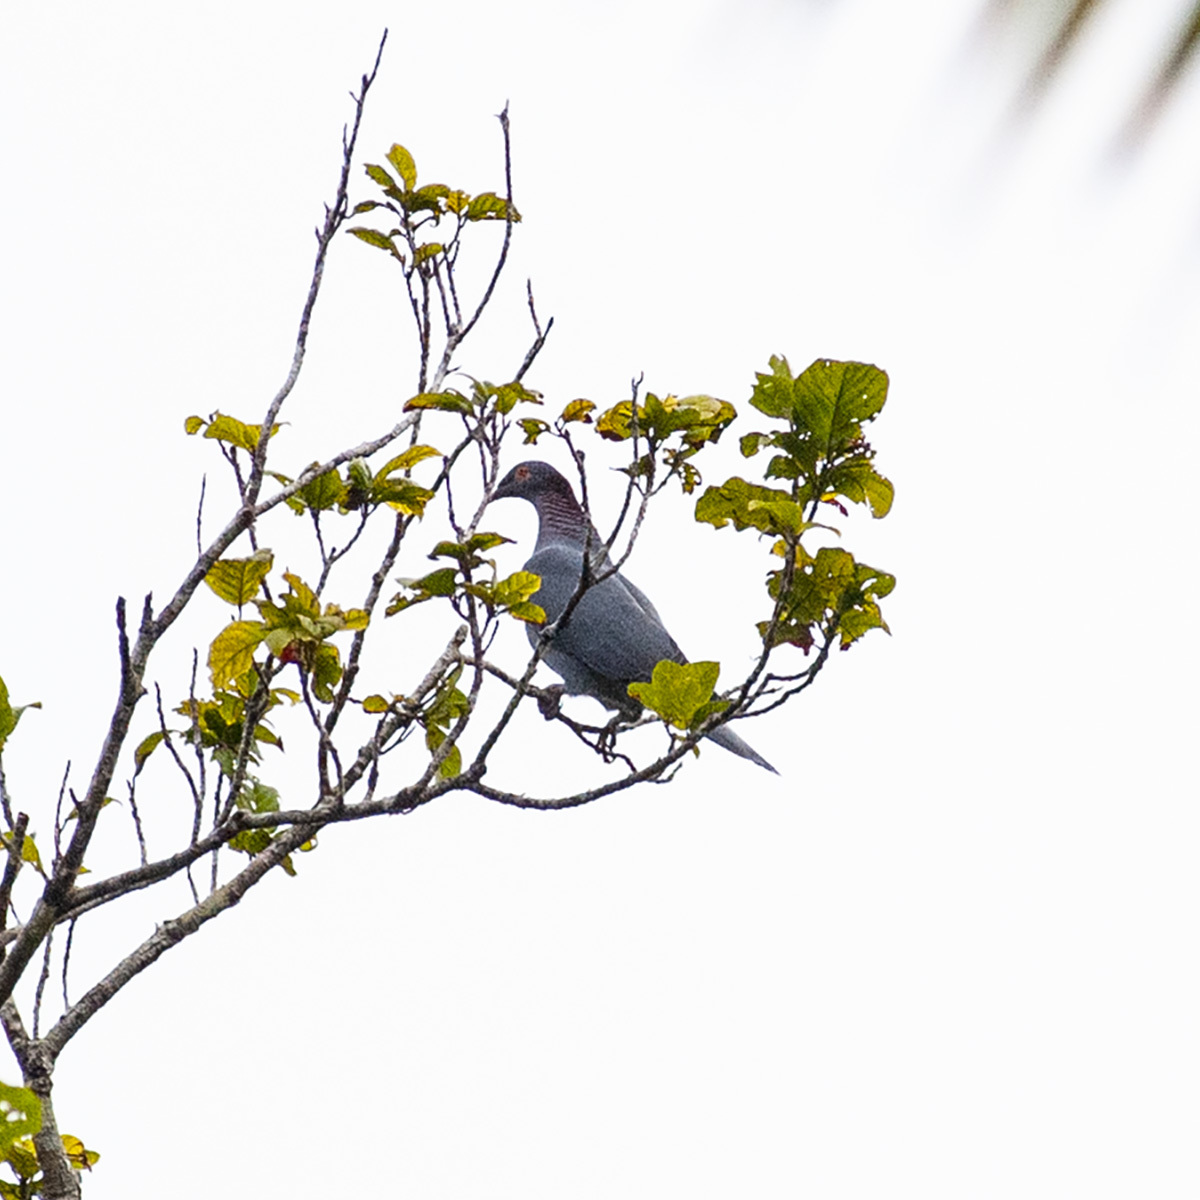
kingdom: Animalia
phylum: Chordata
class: Aves
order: Columbiformes
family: Columbidae
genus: Patagioenas
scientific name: Patagioenas squamosa
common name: Scaly-naped pigeon
